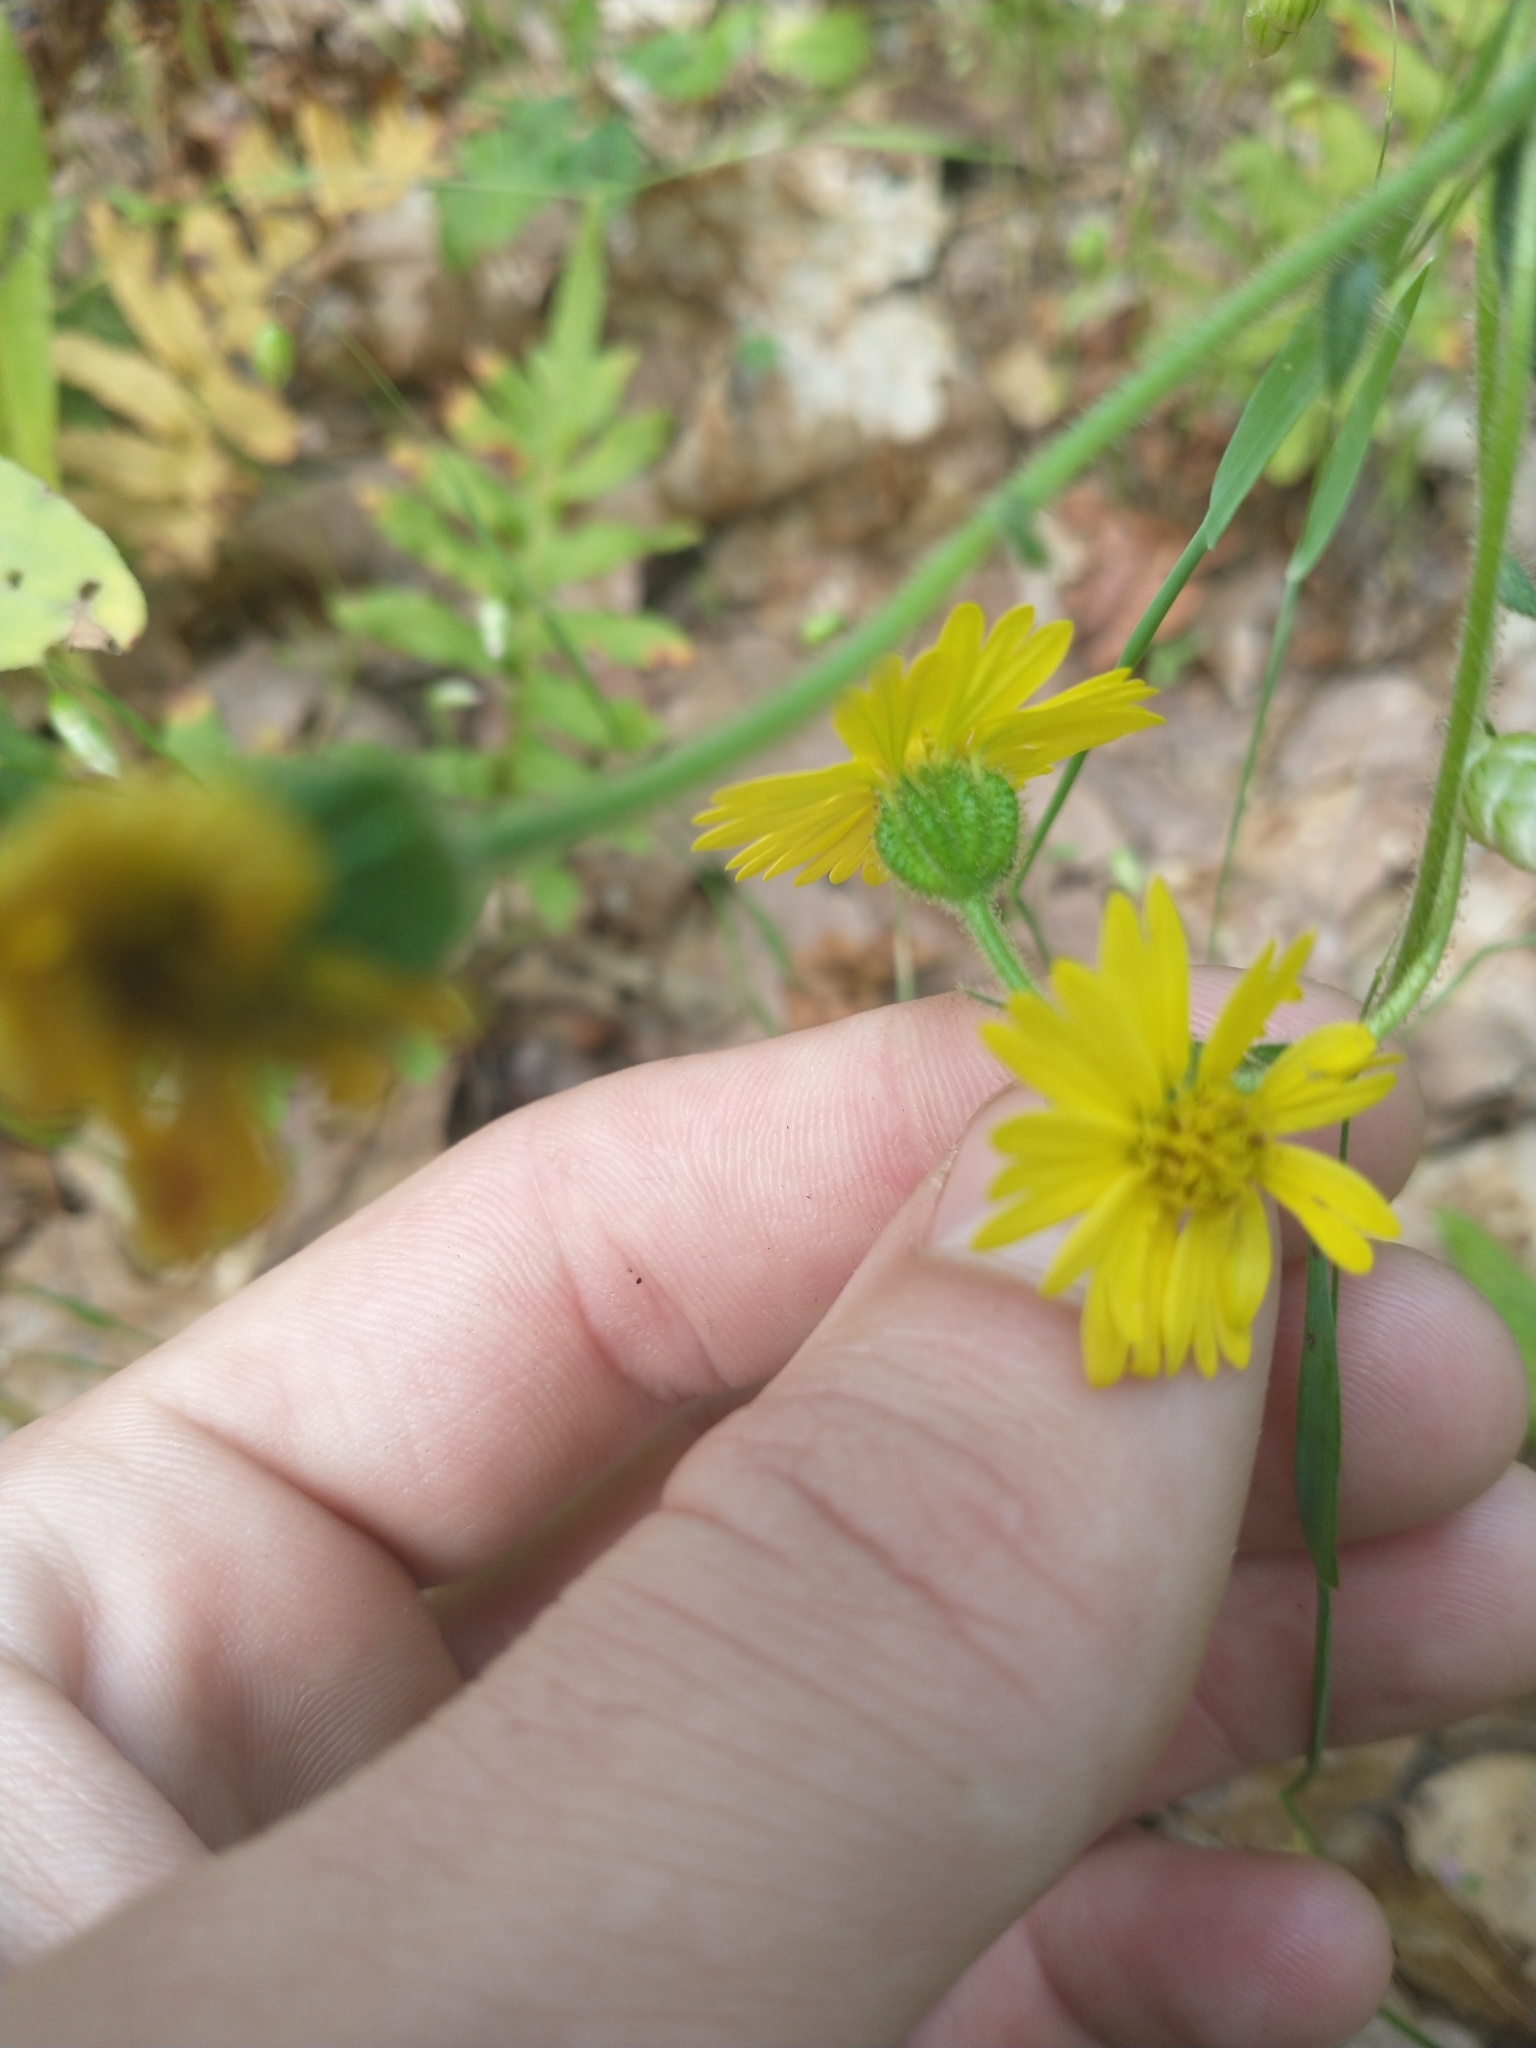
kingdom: Plantae
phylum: Tracheophyta
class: Magnoliopsida
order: Asterales
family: Asteraceae
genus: Anisocarpus
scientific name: Anisocarpus madioides
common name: Woodland madia
